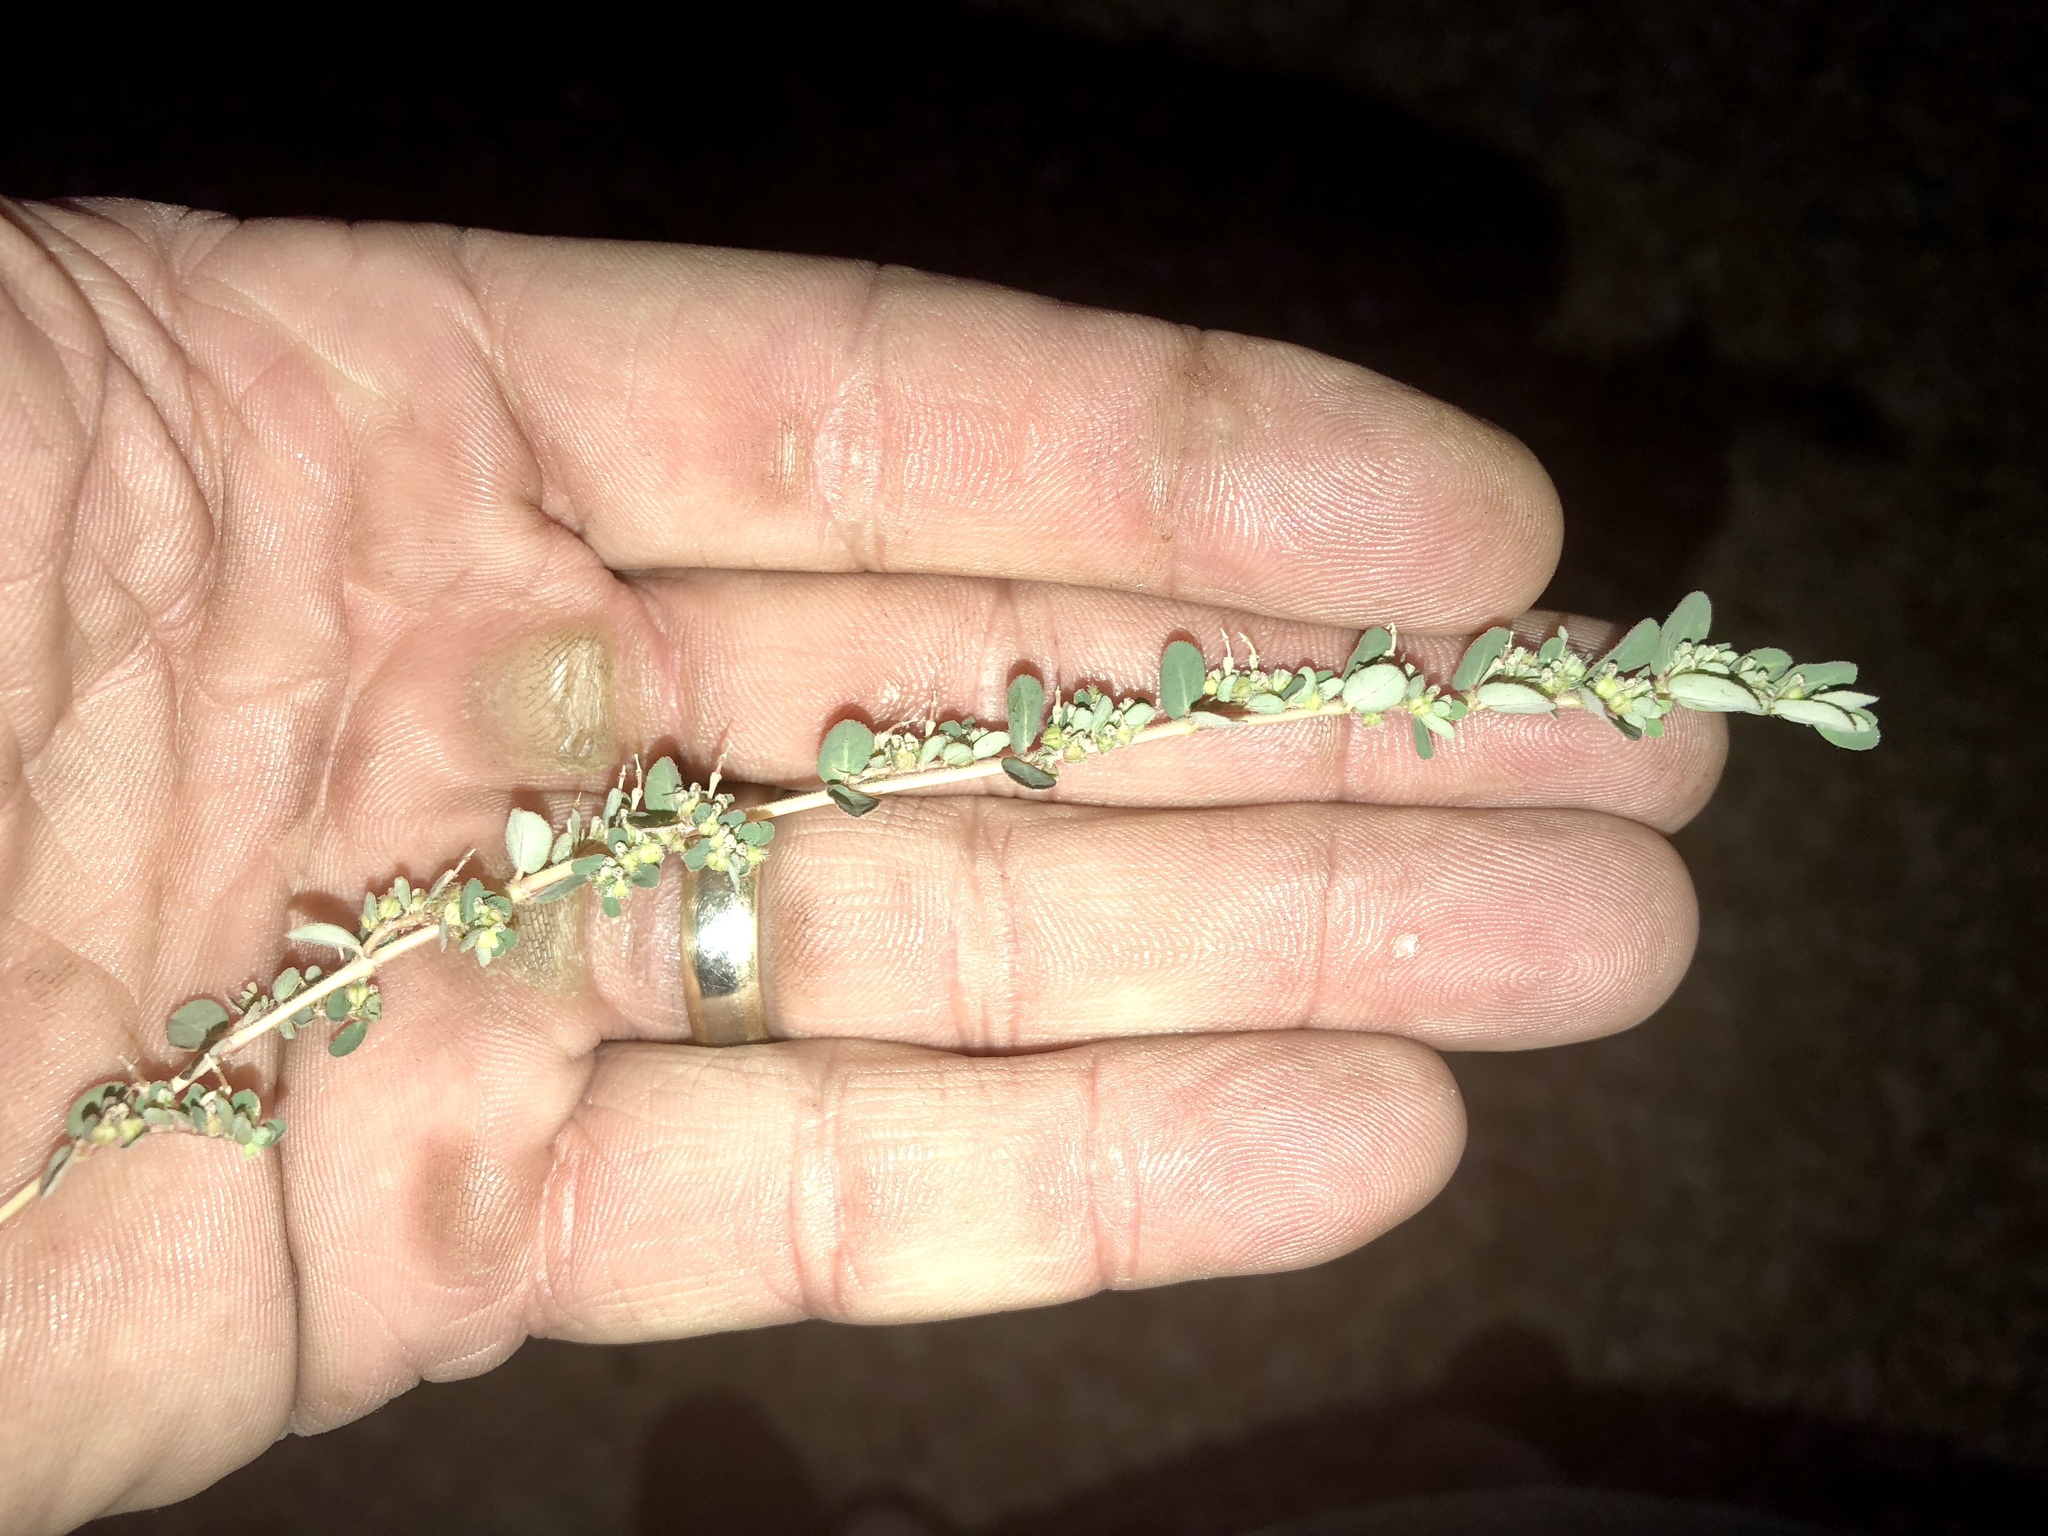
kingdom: Plantae
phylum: Tracheophyta
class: Magnoliopsida
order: Malpighiales
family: Euphorbiaceae
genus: Euphorbia
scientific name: Euphorbia prostrata
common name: Prostrate sandmat
